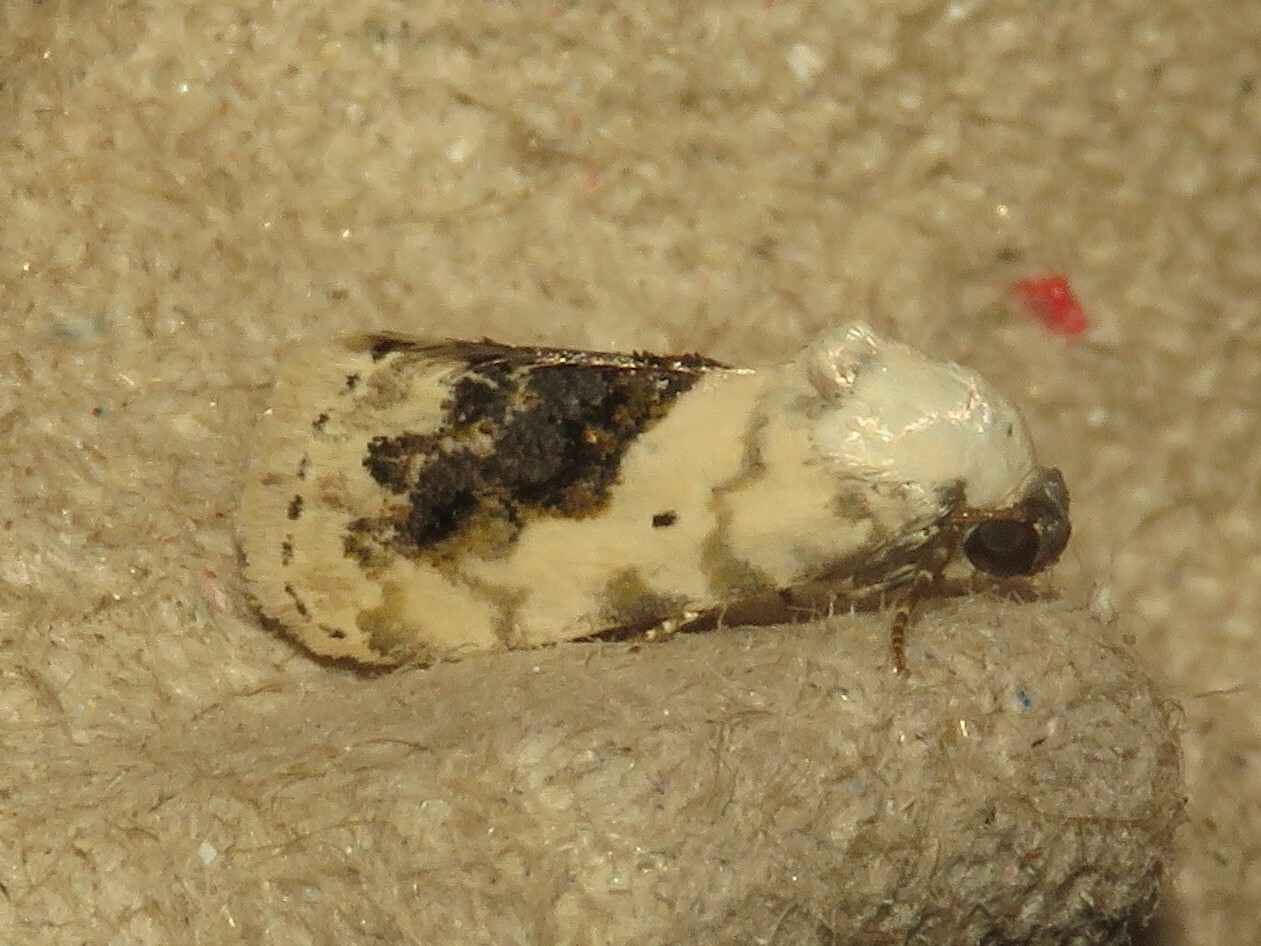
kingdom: Animalia
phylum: Arthropoda
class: Insecta
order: Lepidoptera
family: Noctuidae
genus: Acontia
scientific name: Acontia erastrioides
